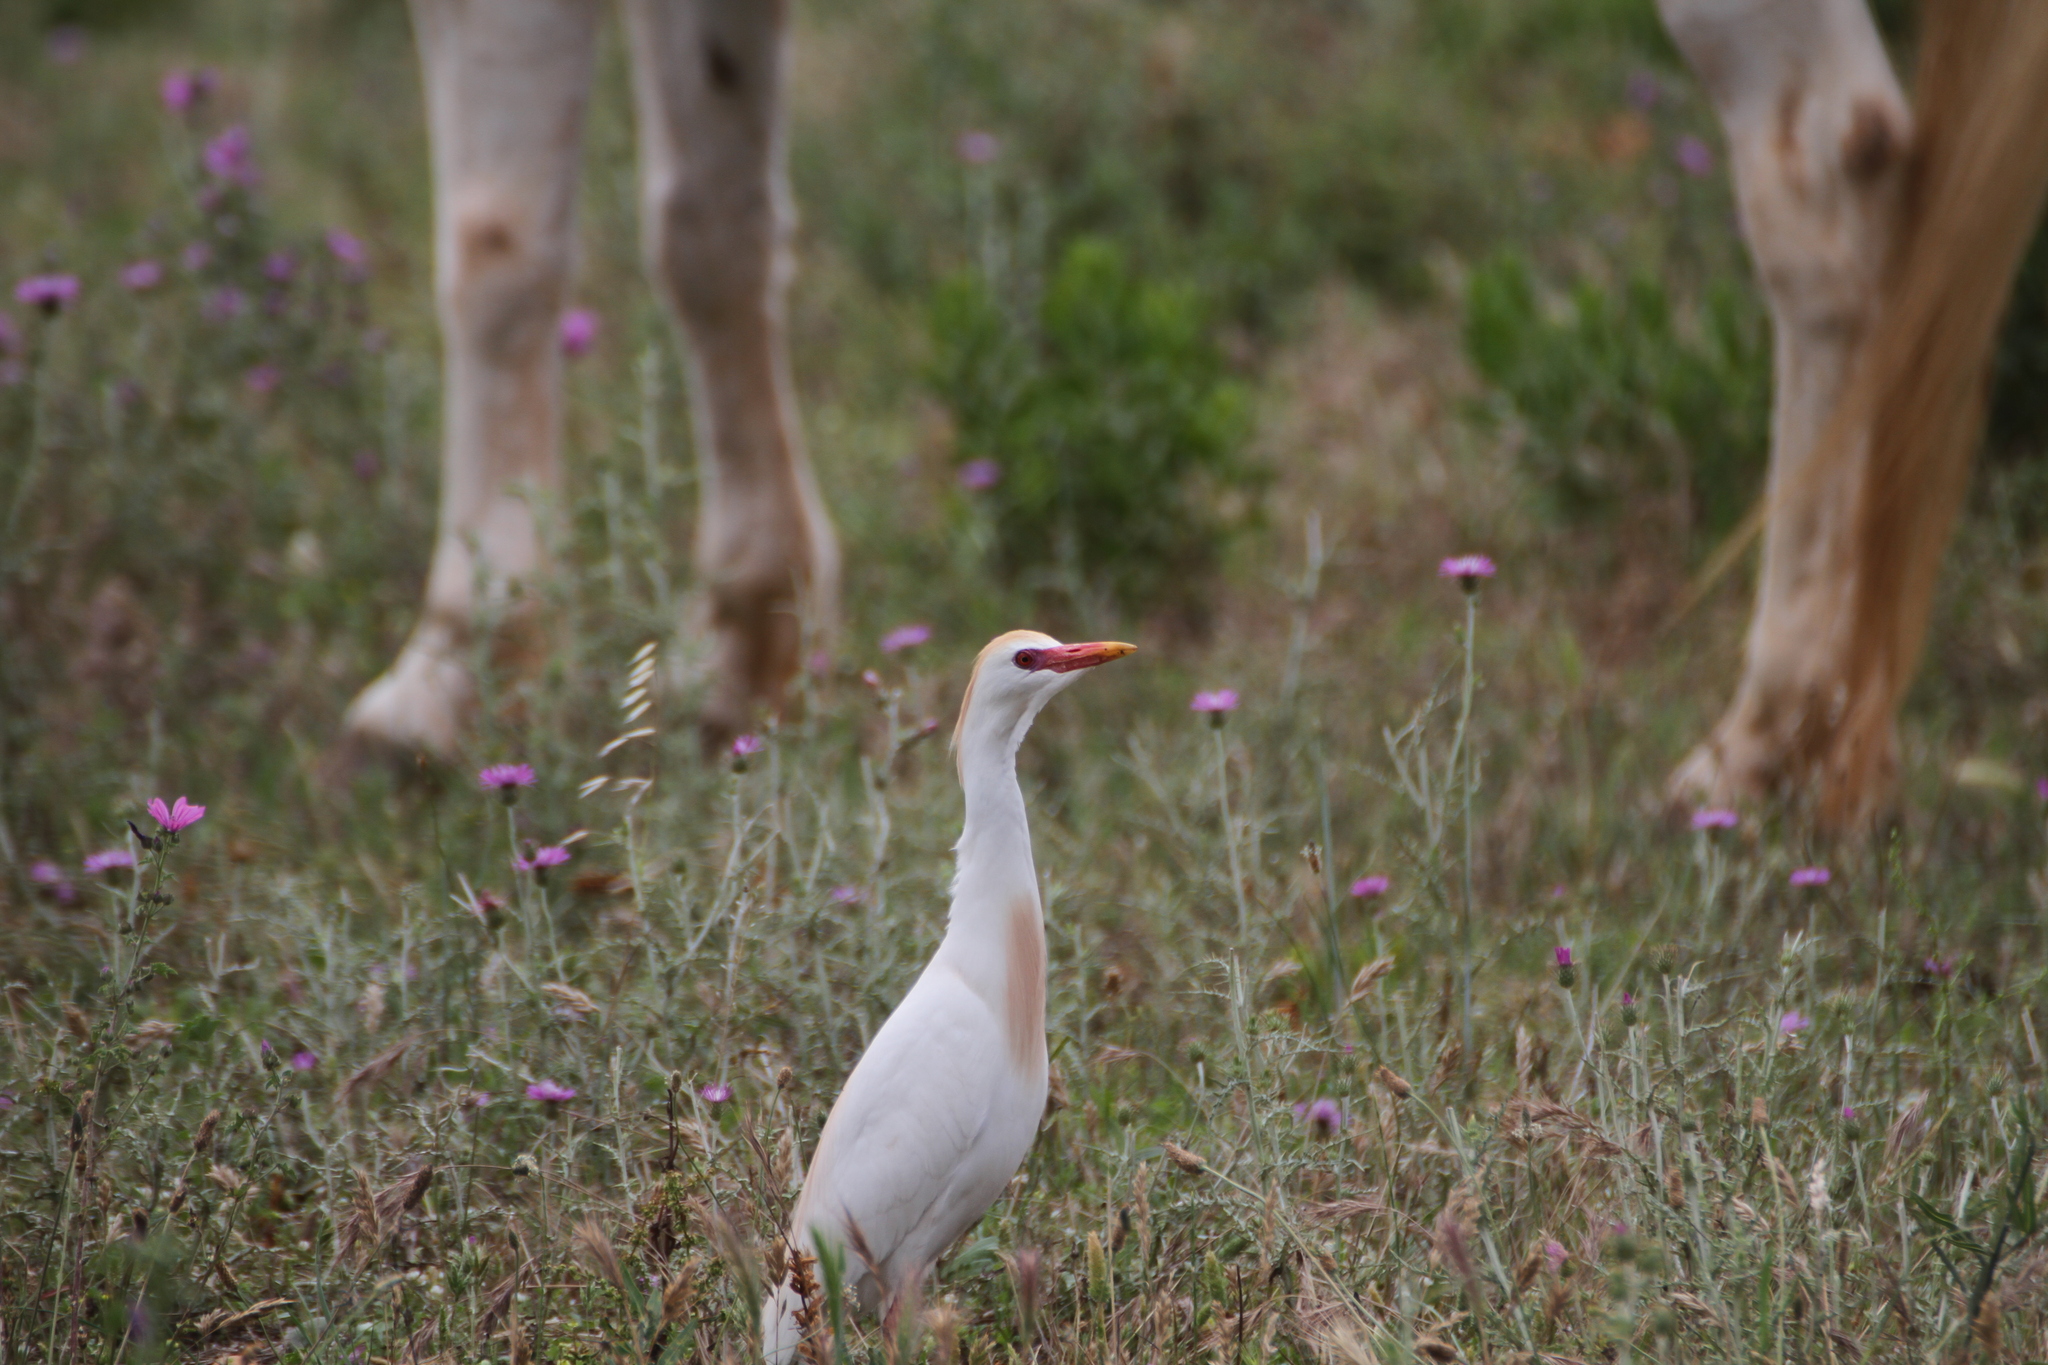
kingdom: Animalia
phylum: Chordata
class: Aves
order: Pelecaniformes
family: Ardeidae
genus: Bubulcus
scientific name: Bubulcus ibis
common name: Cattle egret
